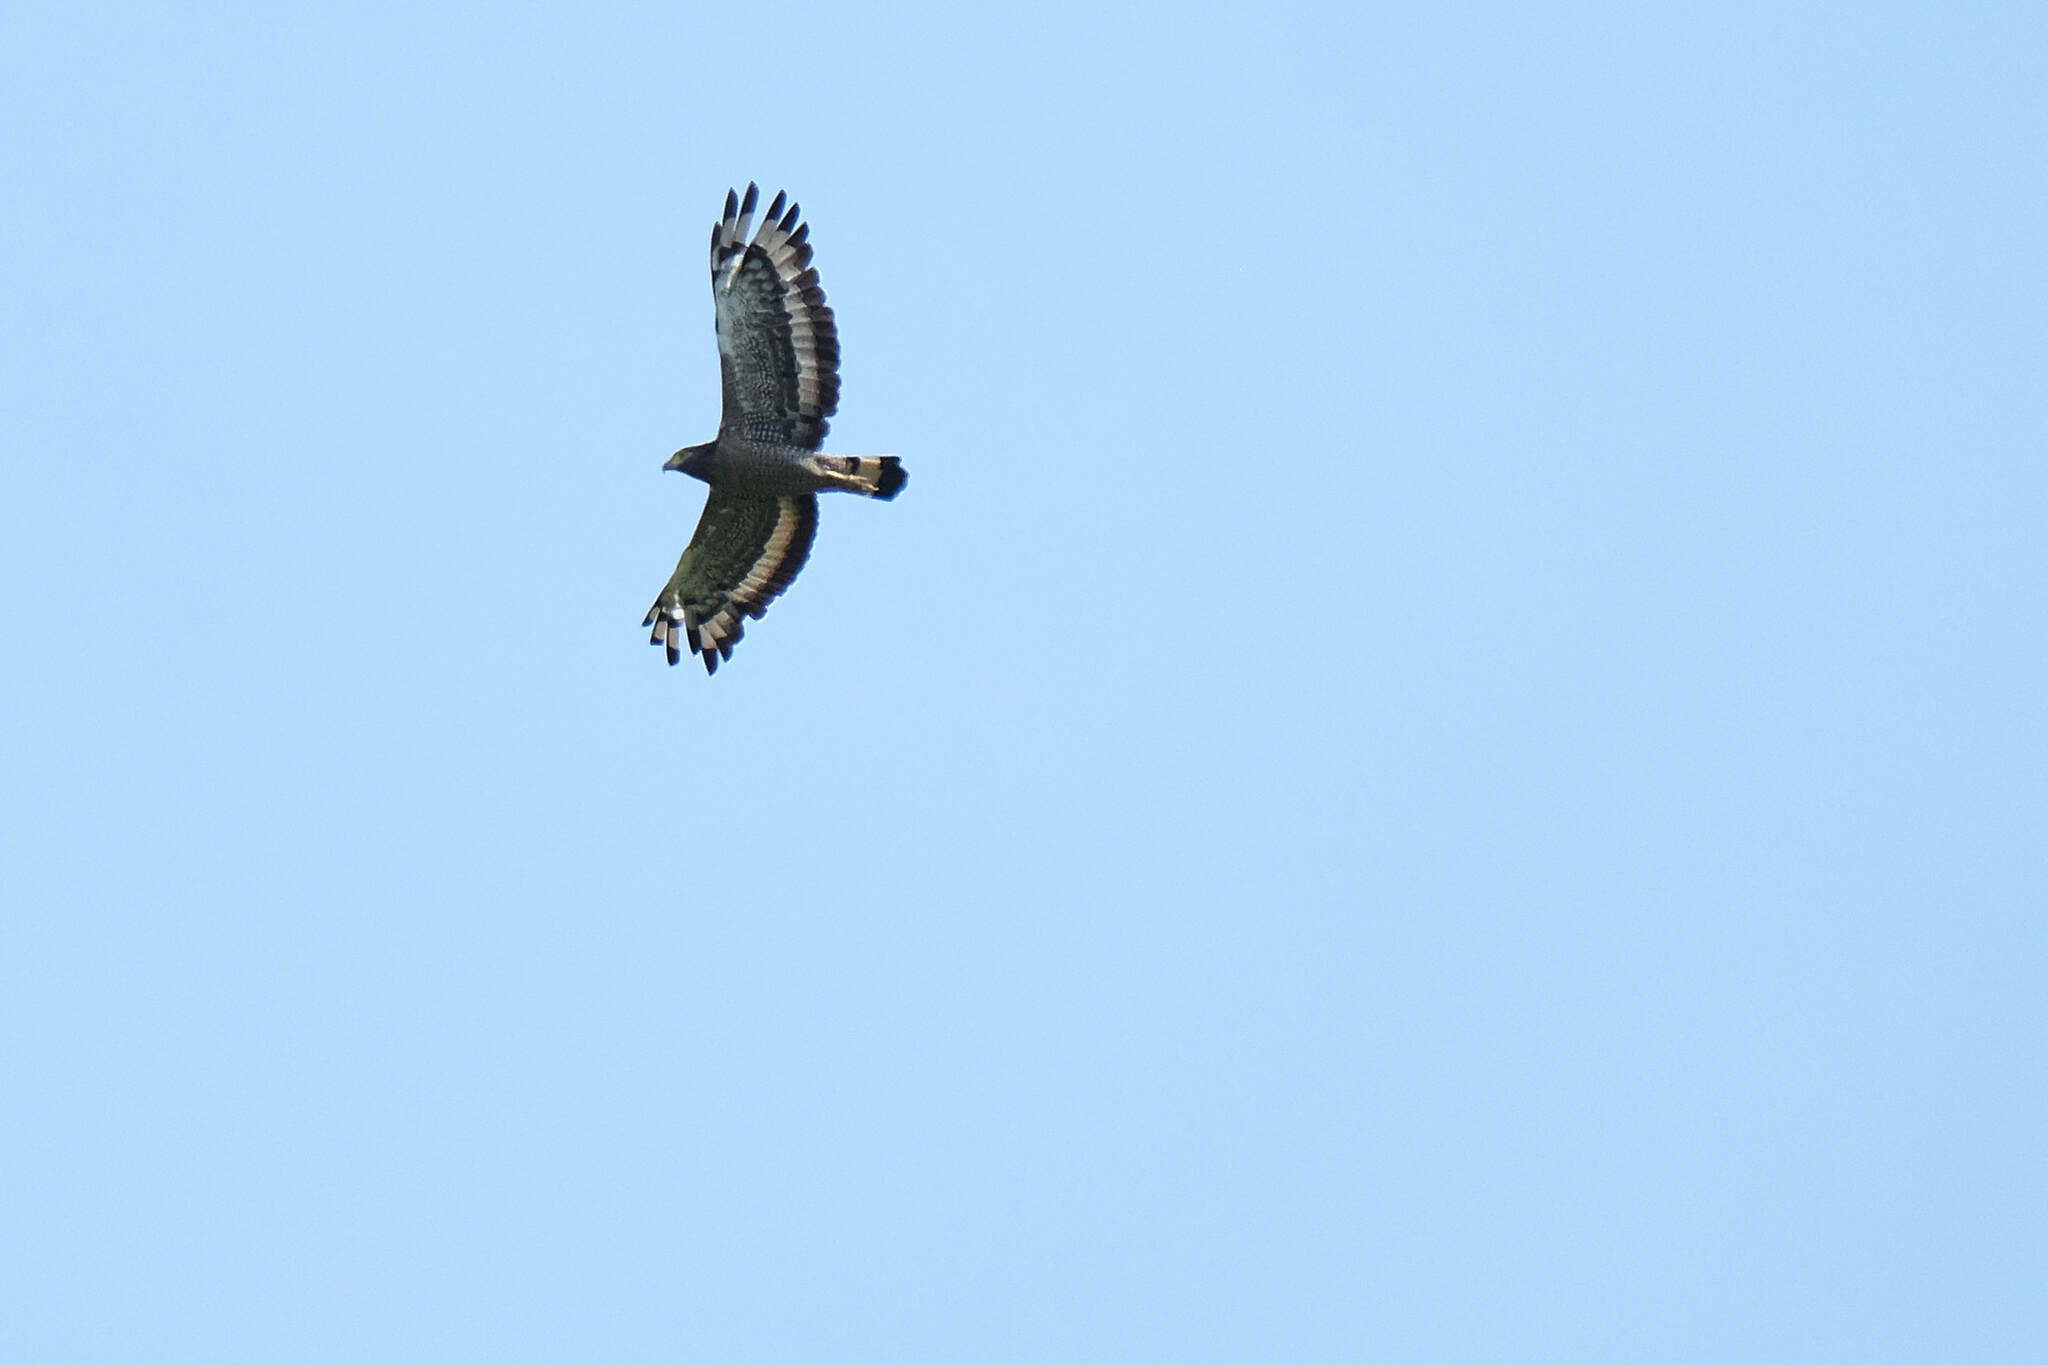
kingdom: Animalia
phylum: Chordata
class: Aves
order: Accipitriformes
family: Accipitridae
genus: Spilornis
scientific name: Spilornis cheela
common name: Crested serpent eagle
